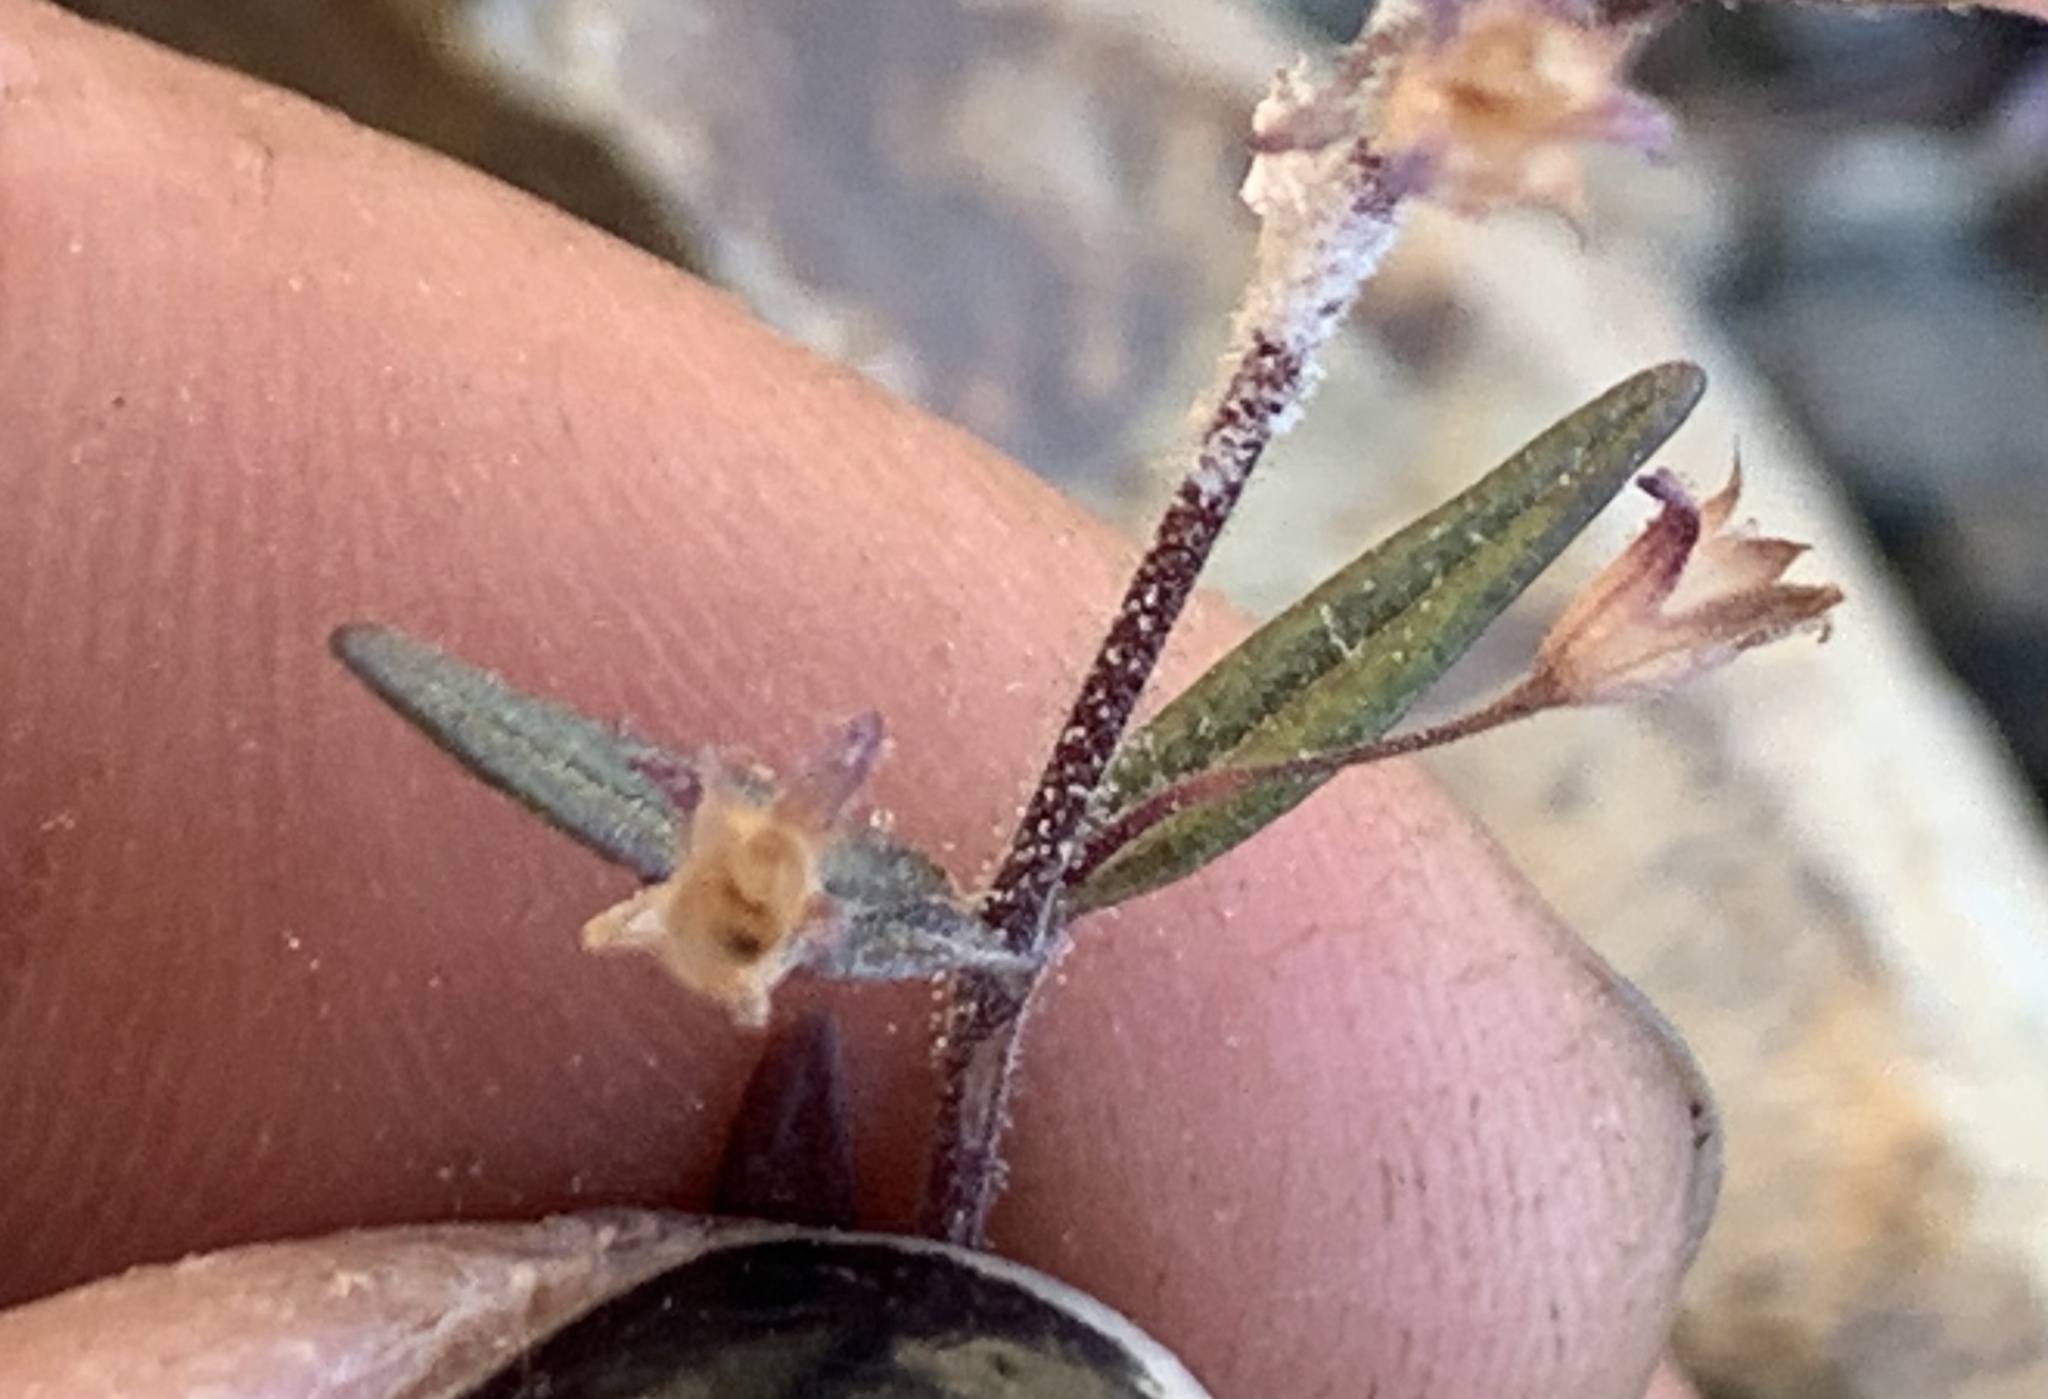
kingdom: Plantae
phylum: Tracheophyta
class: Magnoliopsida
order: Lamiales
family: Plantaginaceae
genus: Collinsia
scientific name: Collinsia linearis
